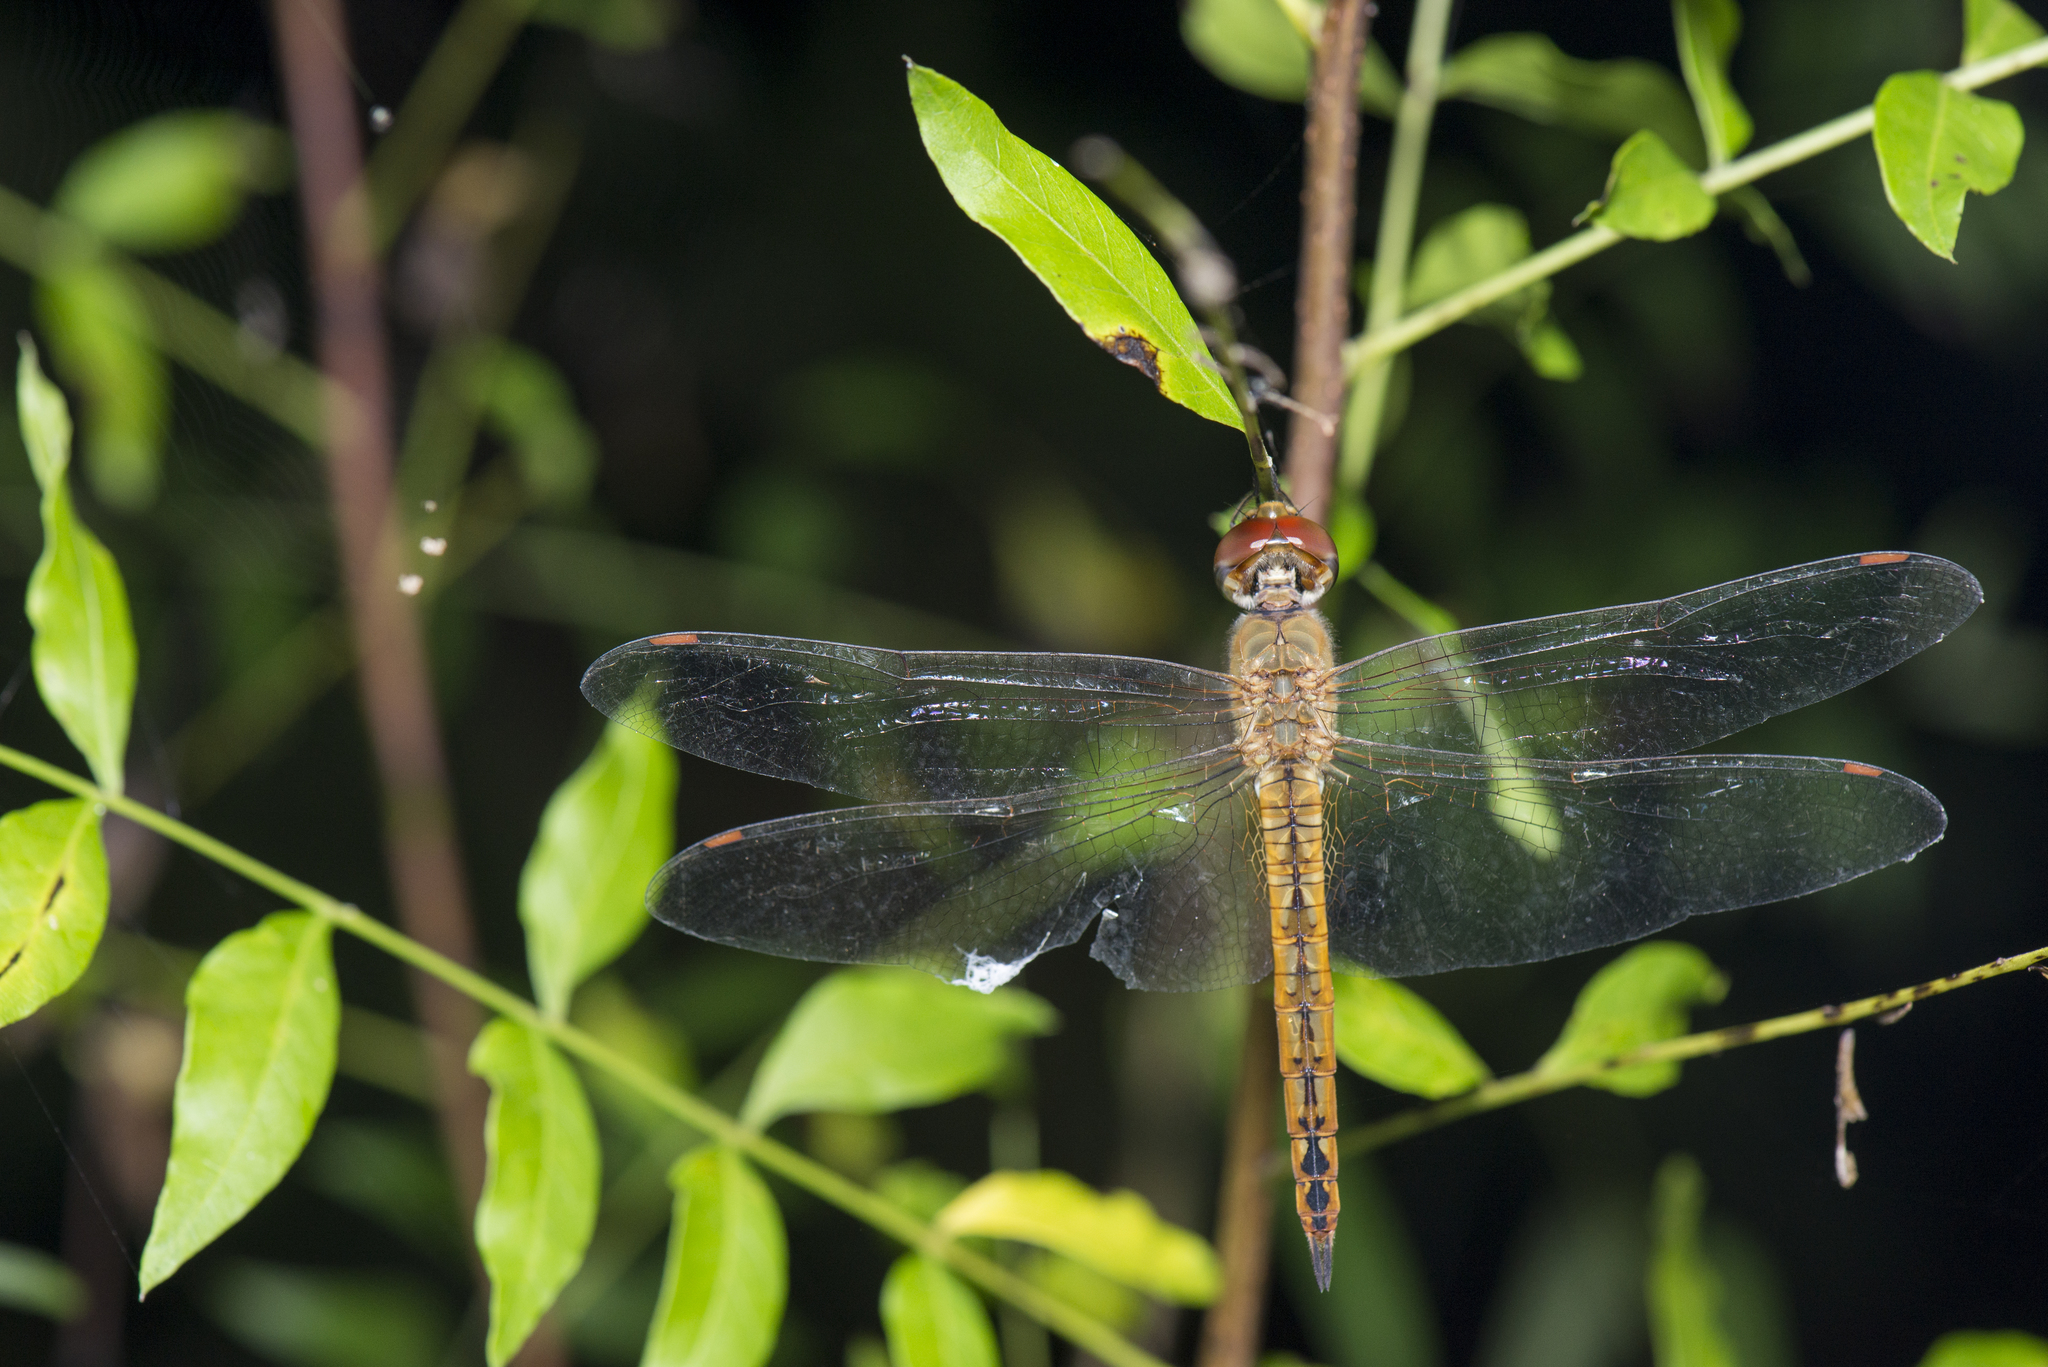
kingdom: Animalia
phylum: Arthropoda
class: Insecta
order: Odonata
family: Libellulidae
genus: Pantala
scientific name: Pantala flavescens
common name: Wandering glider
